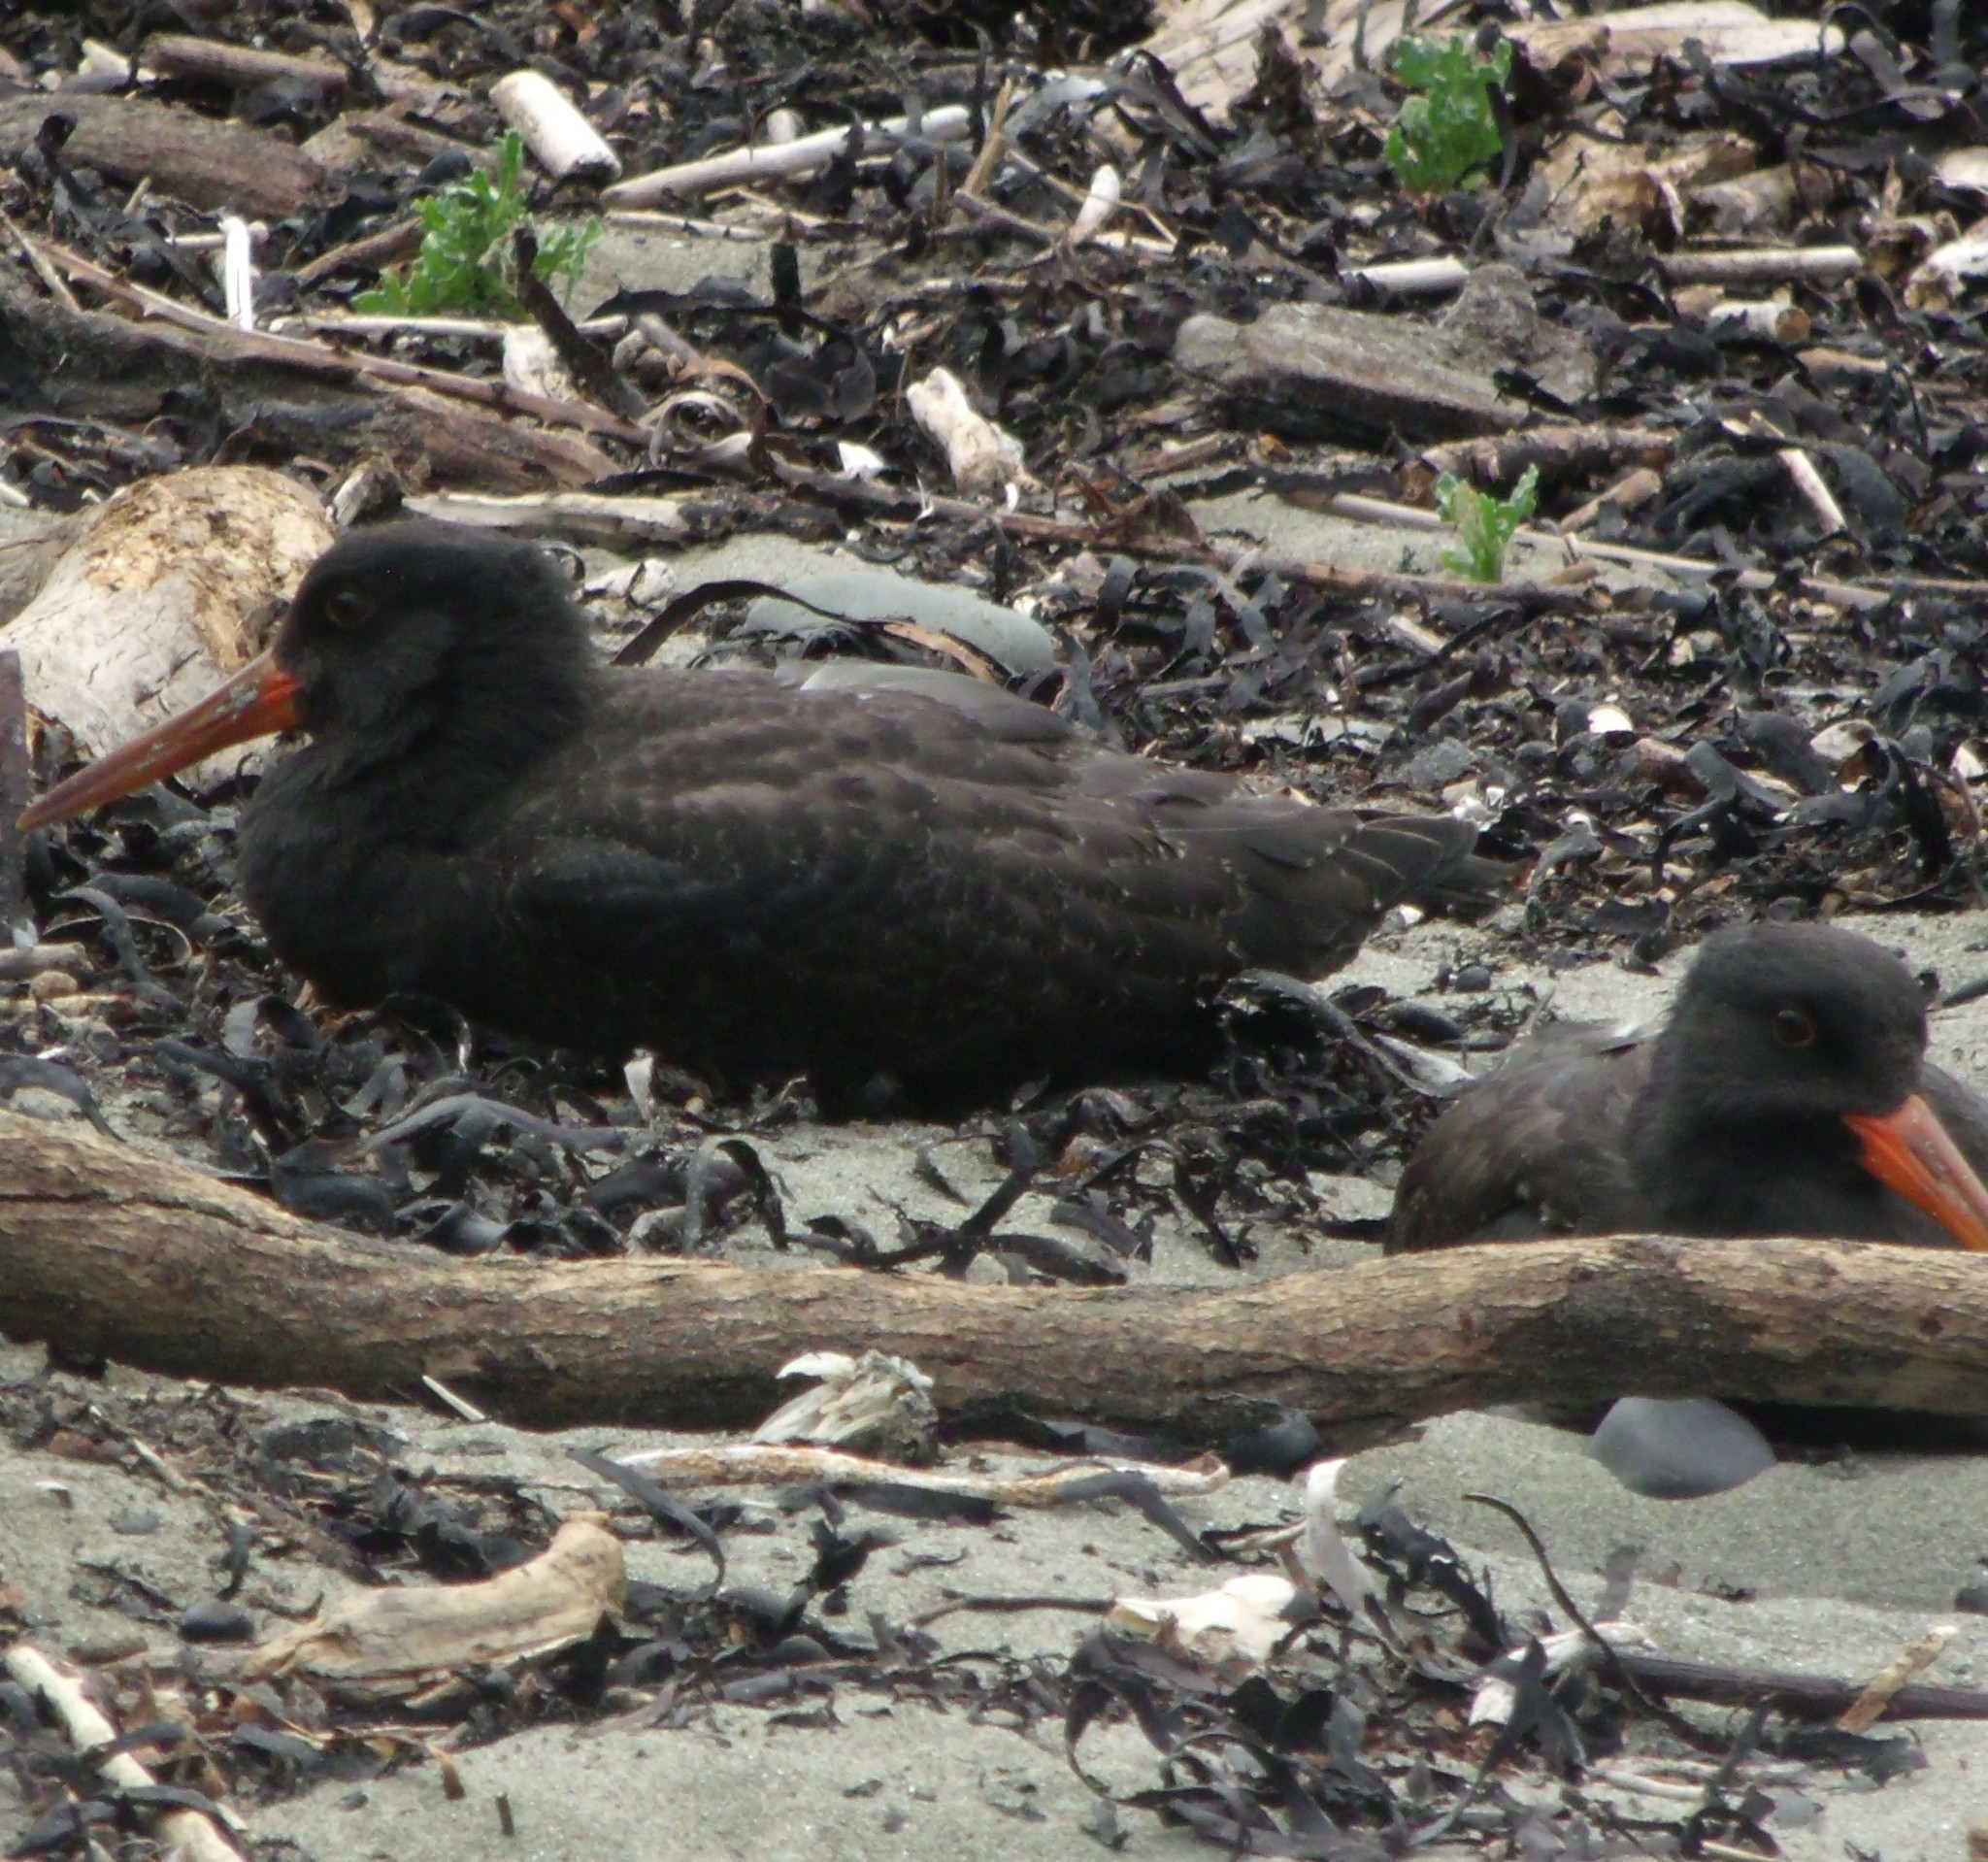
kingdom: Animalia
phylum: Chordata
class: Aves
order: Charadriiformes
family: Haematopodidae
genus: Haematopus
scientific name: Haematopus unicolor
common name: Variable oystercatcher
